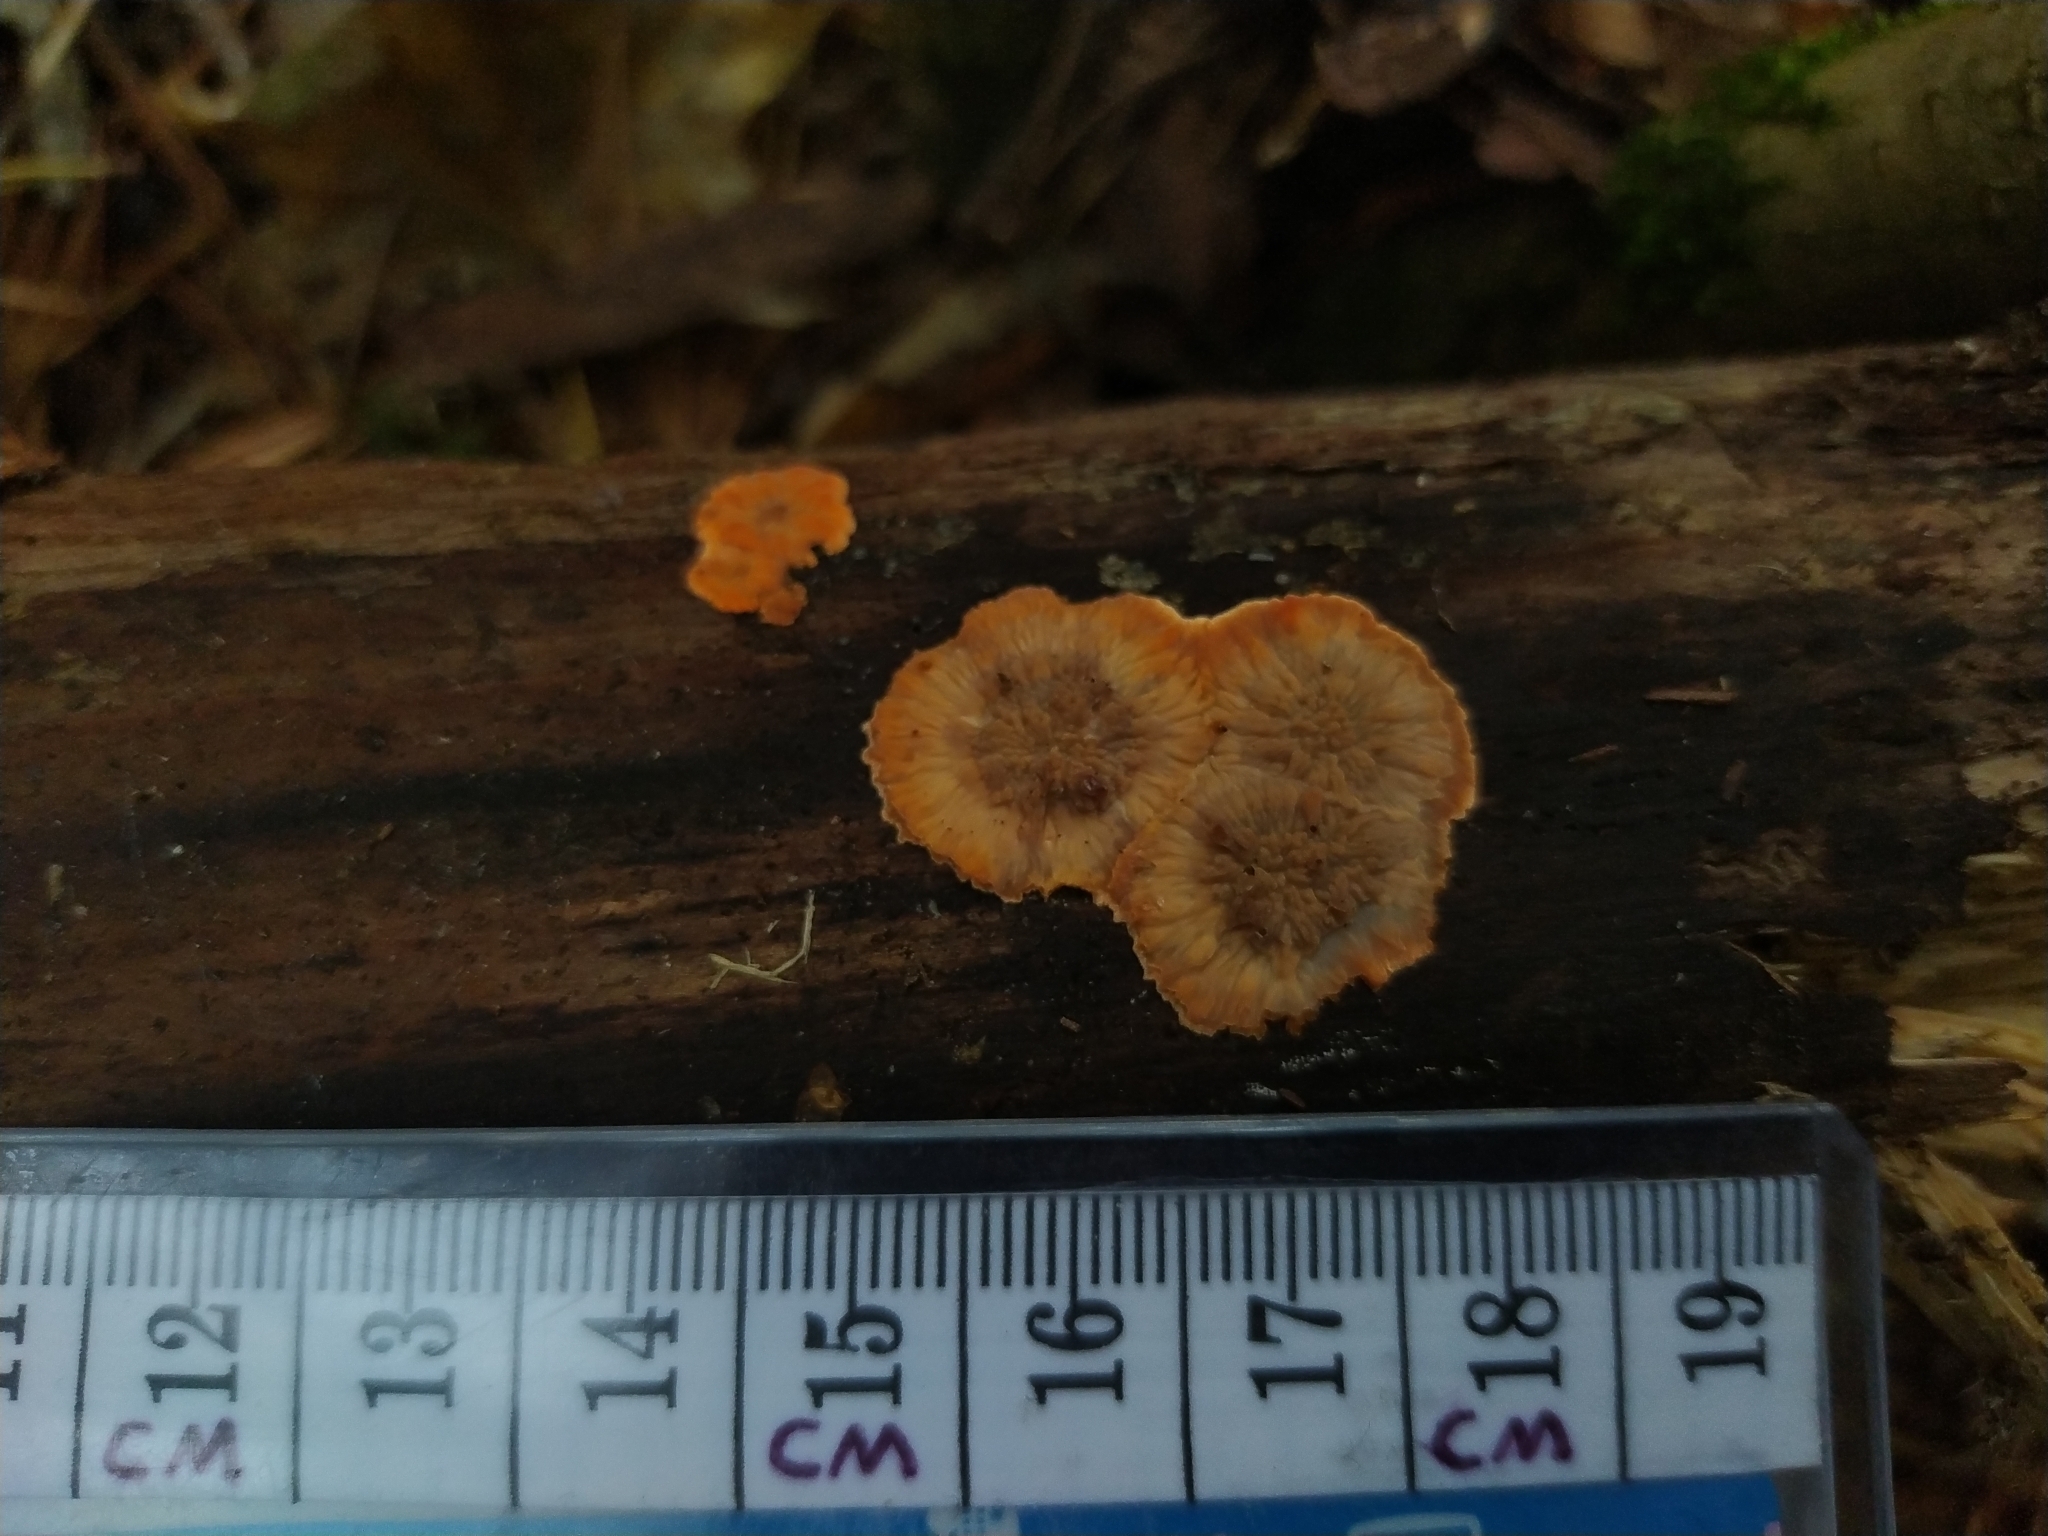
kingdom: Fungi
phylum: Basidiomycota
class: Agaricomycetes
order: Polyporales
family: Meruliaceae
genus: Phlebia
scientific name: Phlebia radiata
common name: Wrinkled crust
